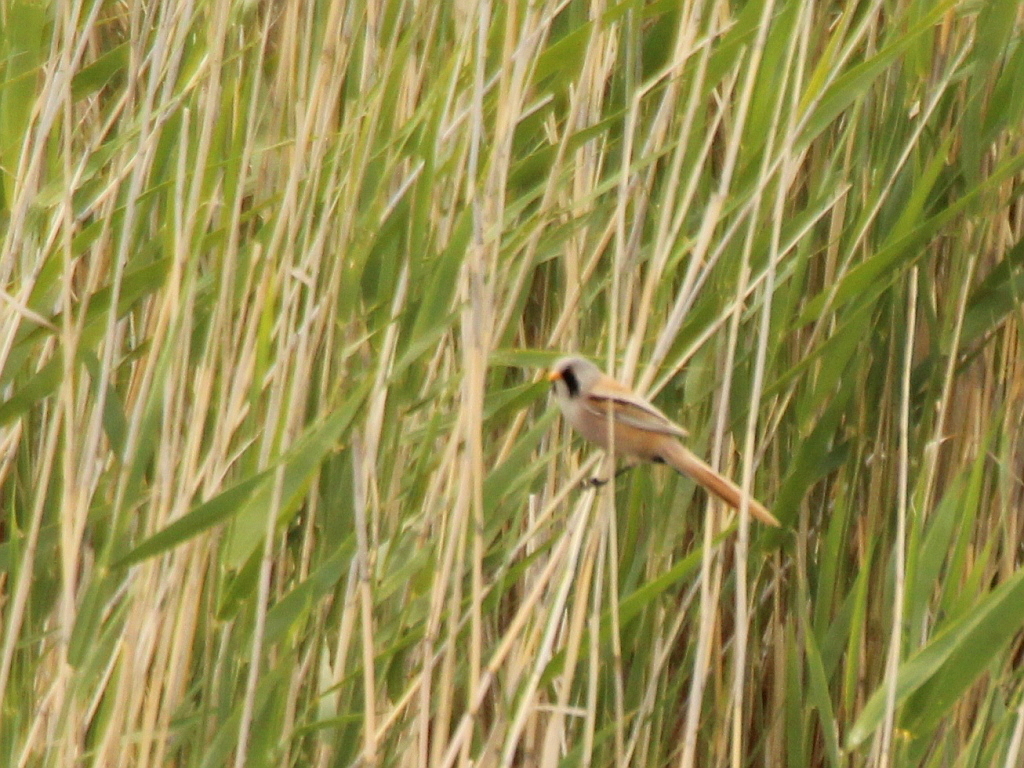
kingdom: Animalia
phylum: Chordata
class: Aves
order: Passeriformes
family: Panuridae
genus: Panurus
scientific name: Panurus biarmicus
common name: Bearded reedling
